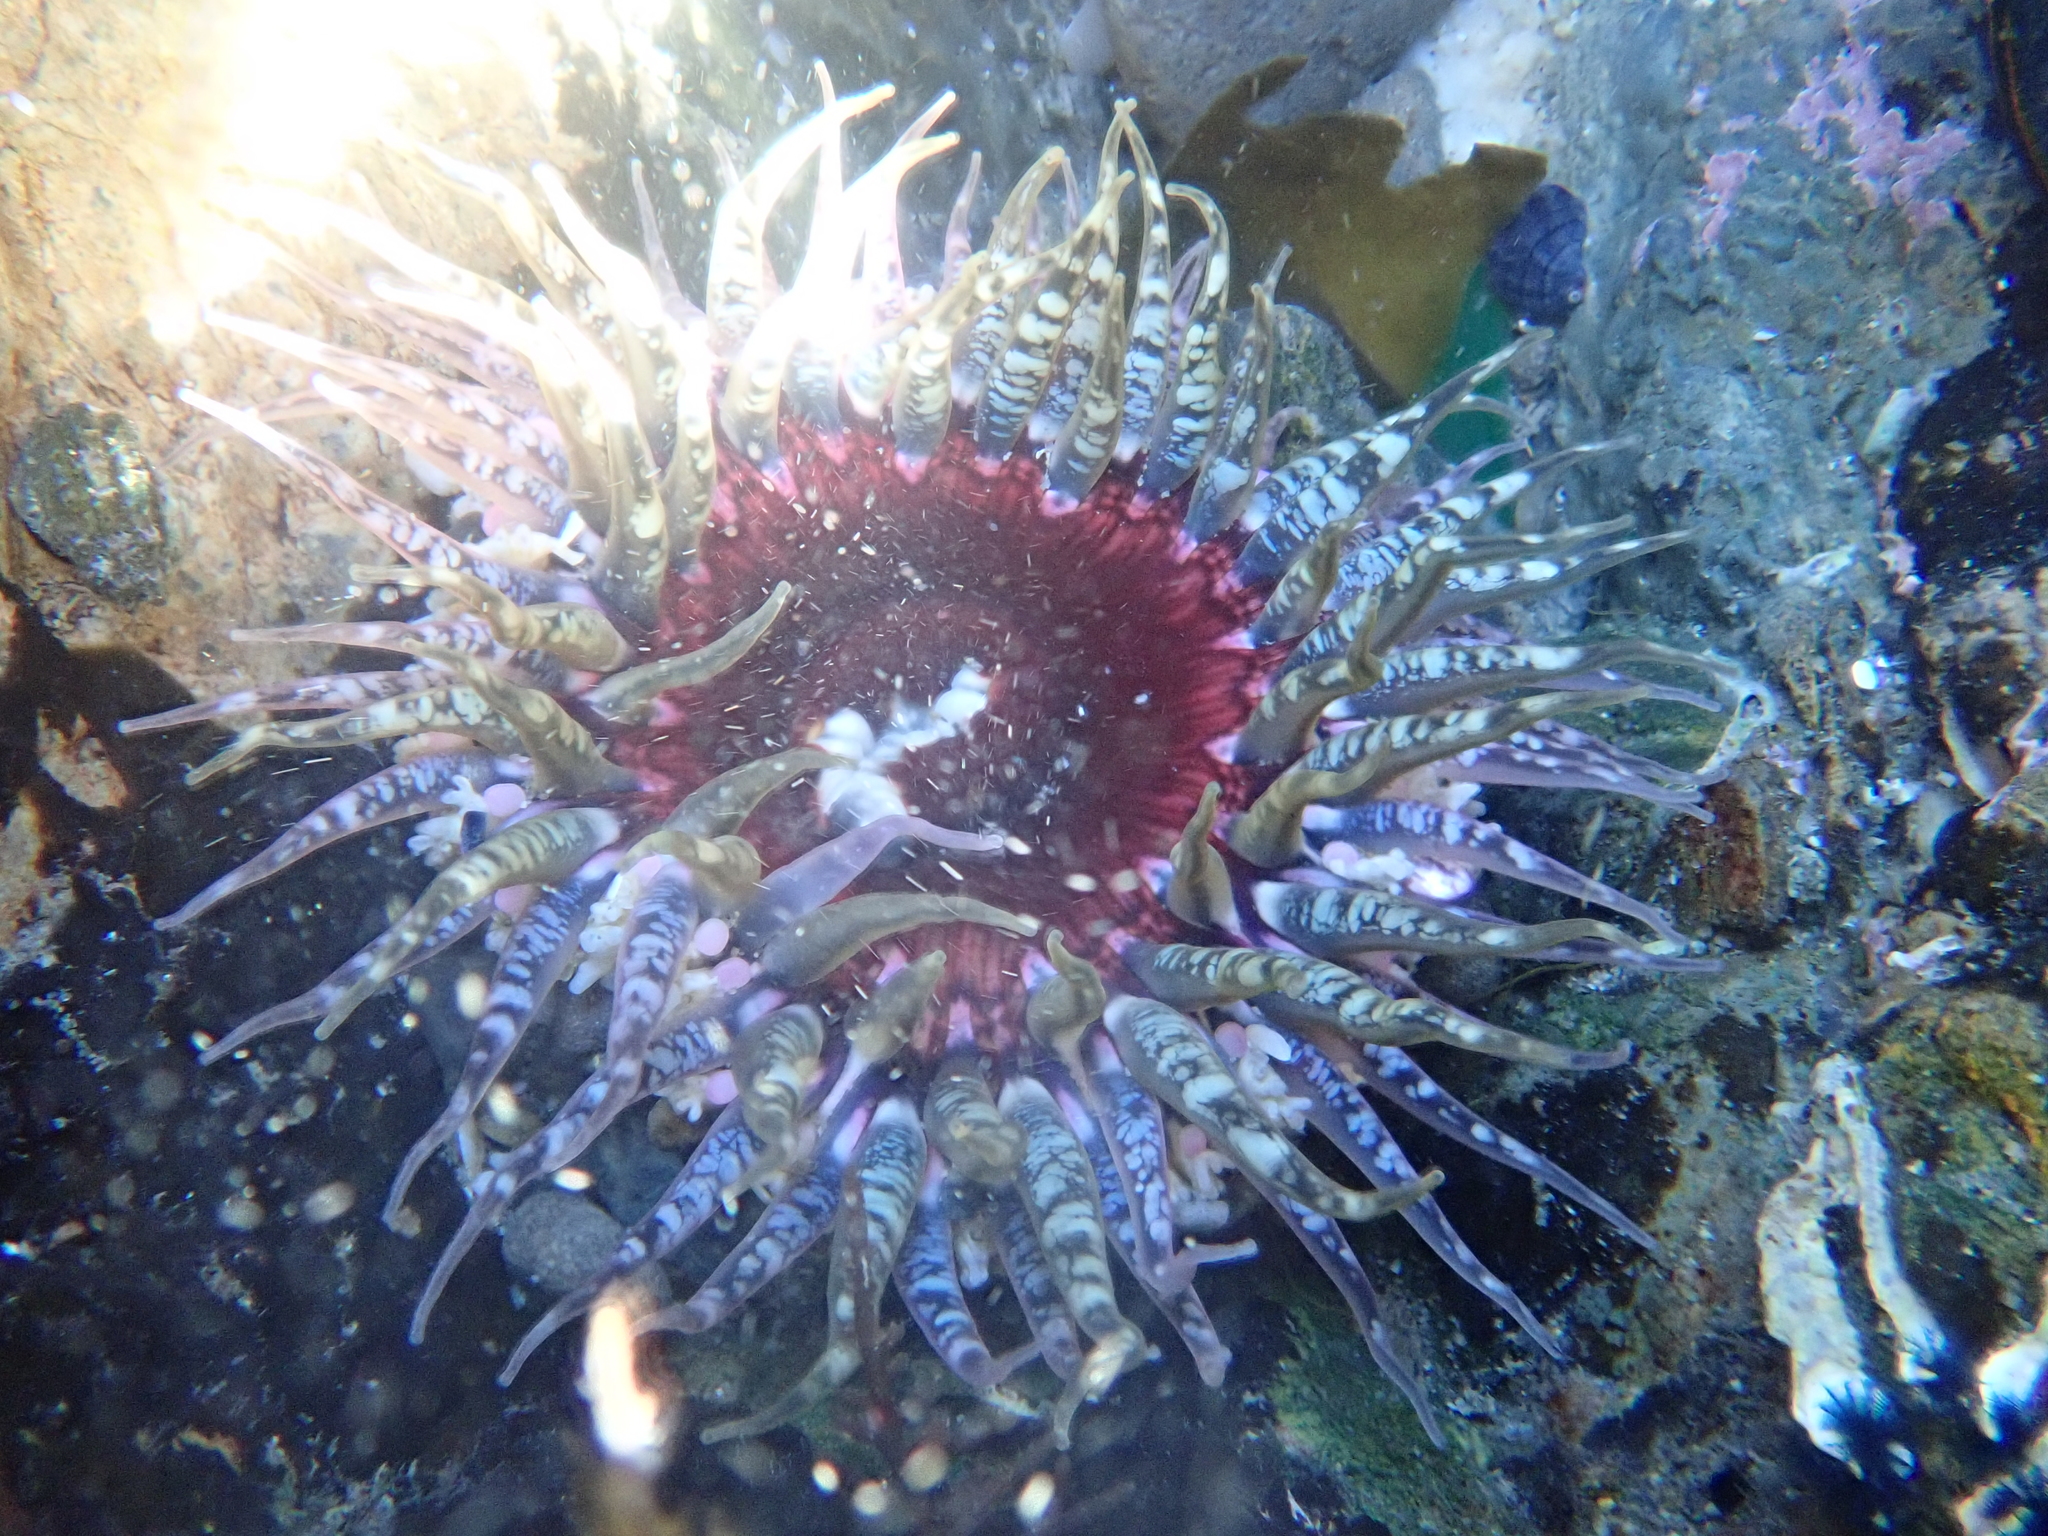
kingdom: Animalia
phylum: Cnidaria
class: Anthozoa
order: Actiniaria
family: Actiniidae
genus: Oulactis
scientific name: Oulactis muscosa
